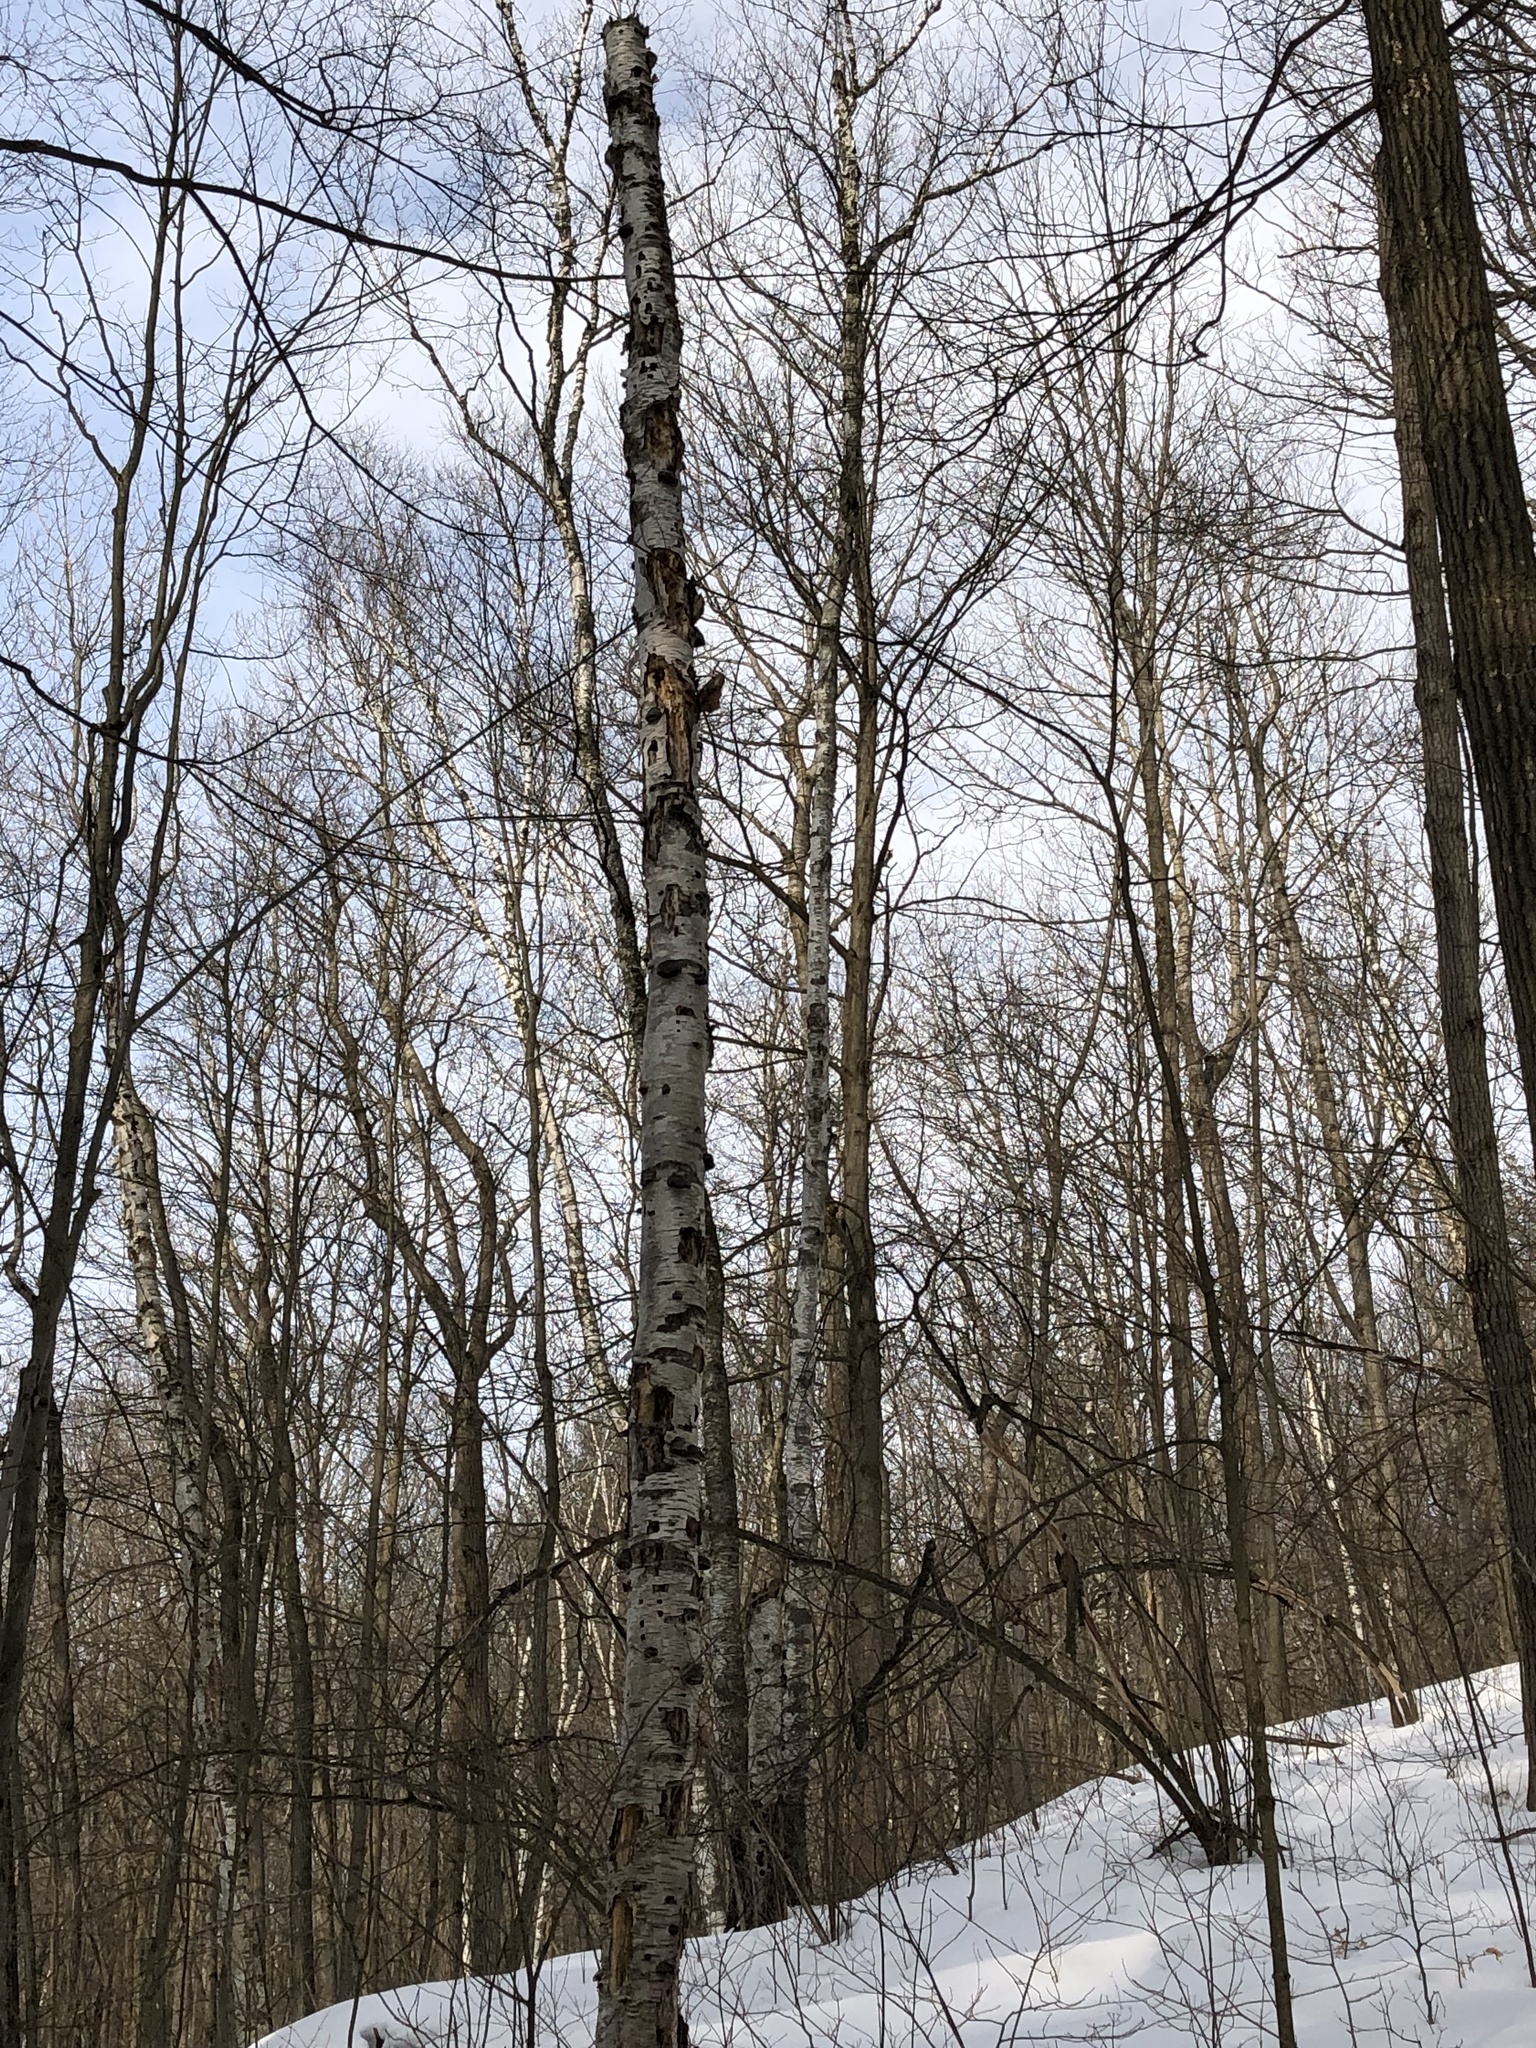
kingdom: Plantae
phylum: Tracheophyta
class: Magnoliopsida
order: Fagales
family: Betulaceae
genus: Betula
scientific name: Betula papyrifera
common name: Paper birch
